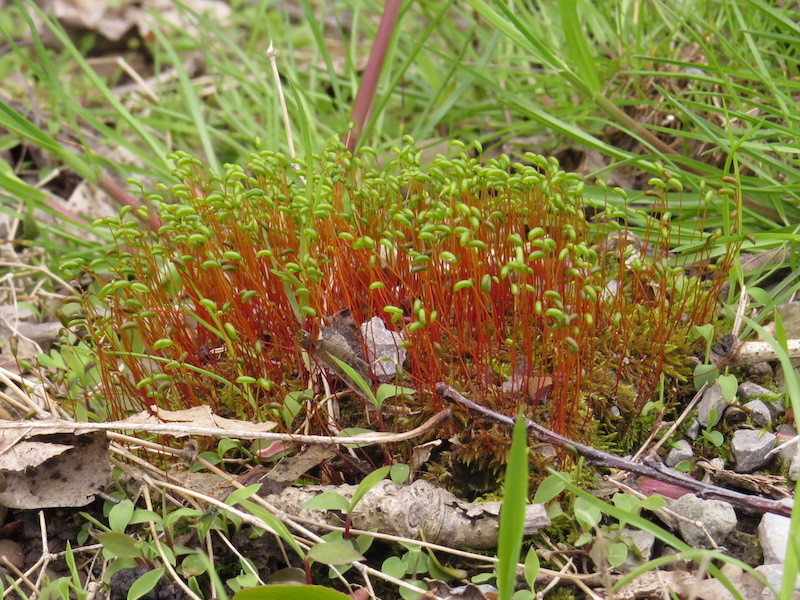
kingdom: Plantae
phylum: Bryophyta
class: Bryopsida
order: Dicranales
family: Ditrichaceae
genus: Ceratodon
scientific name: Ceratodon purpureus
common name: Redshank
